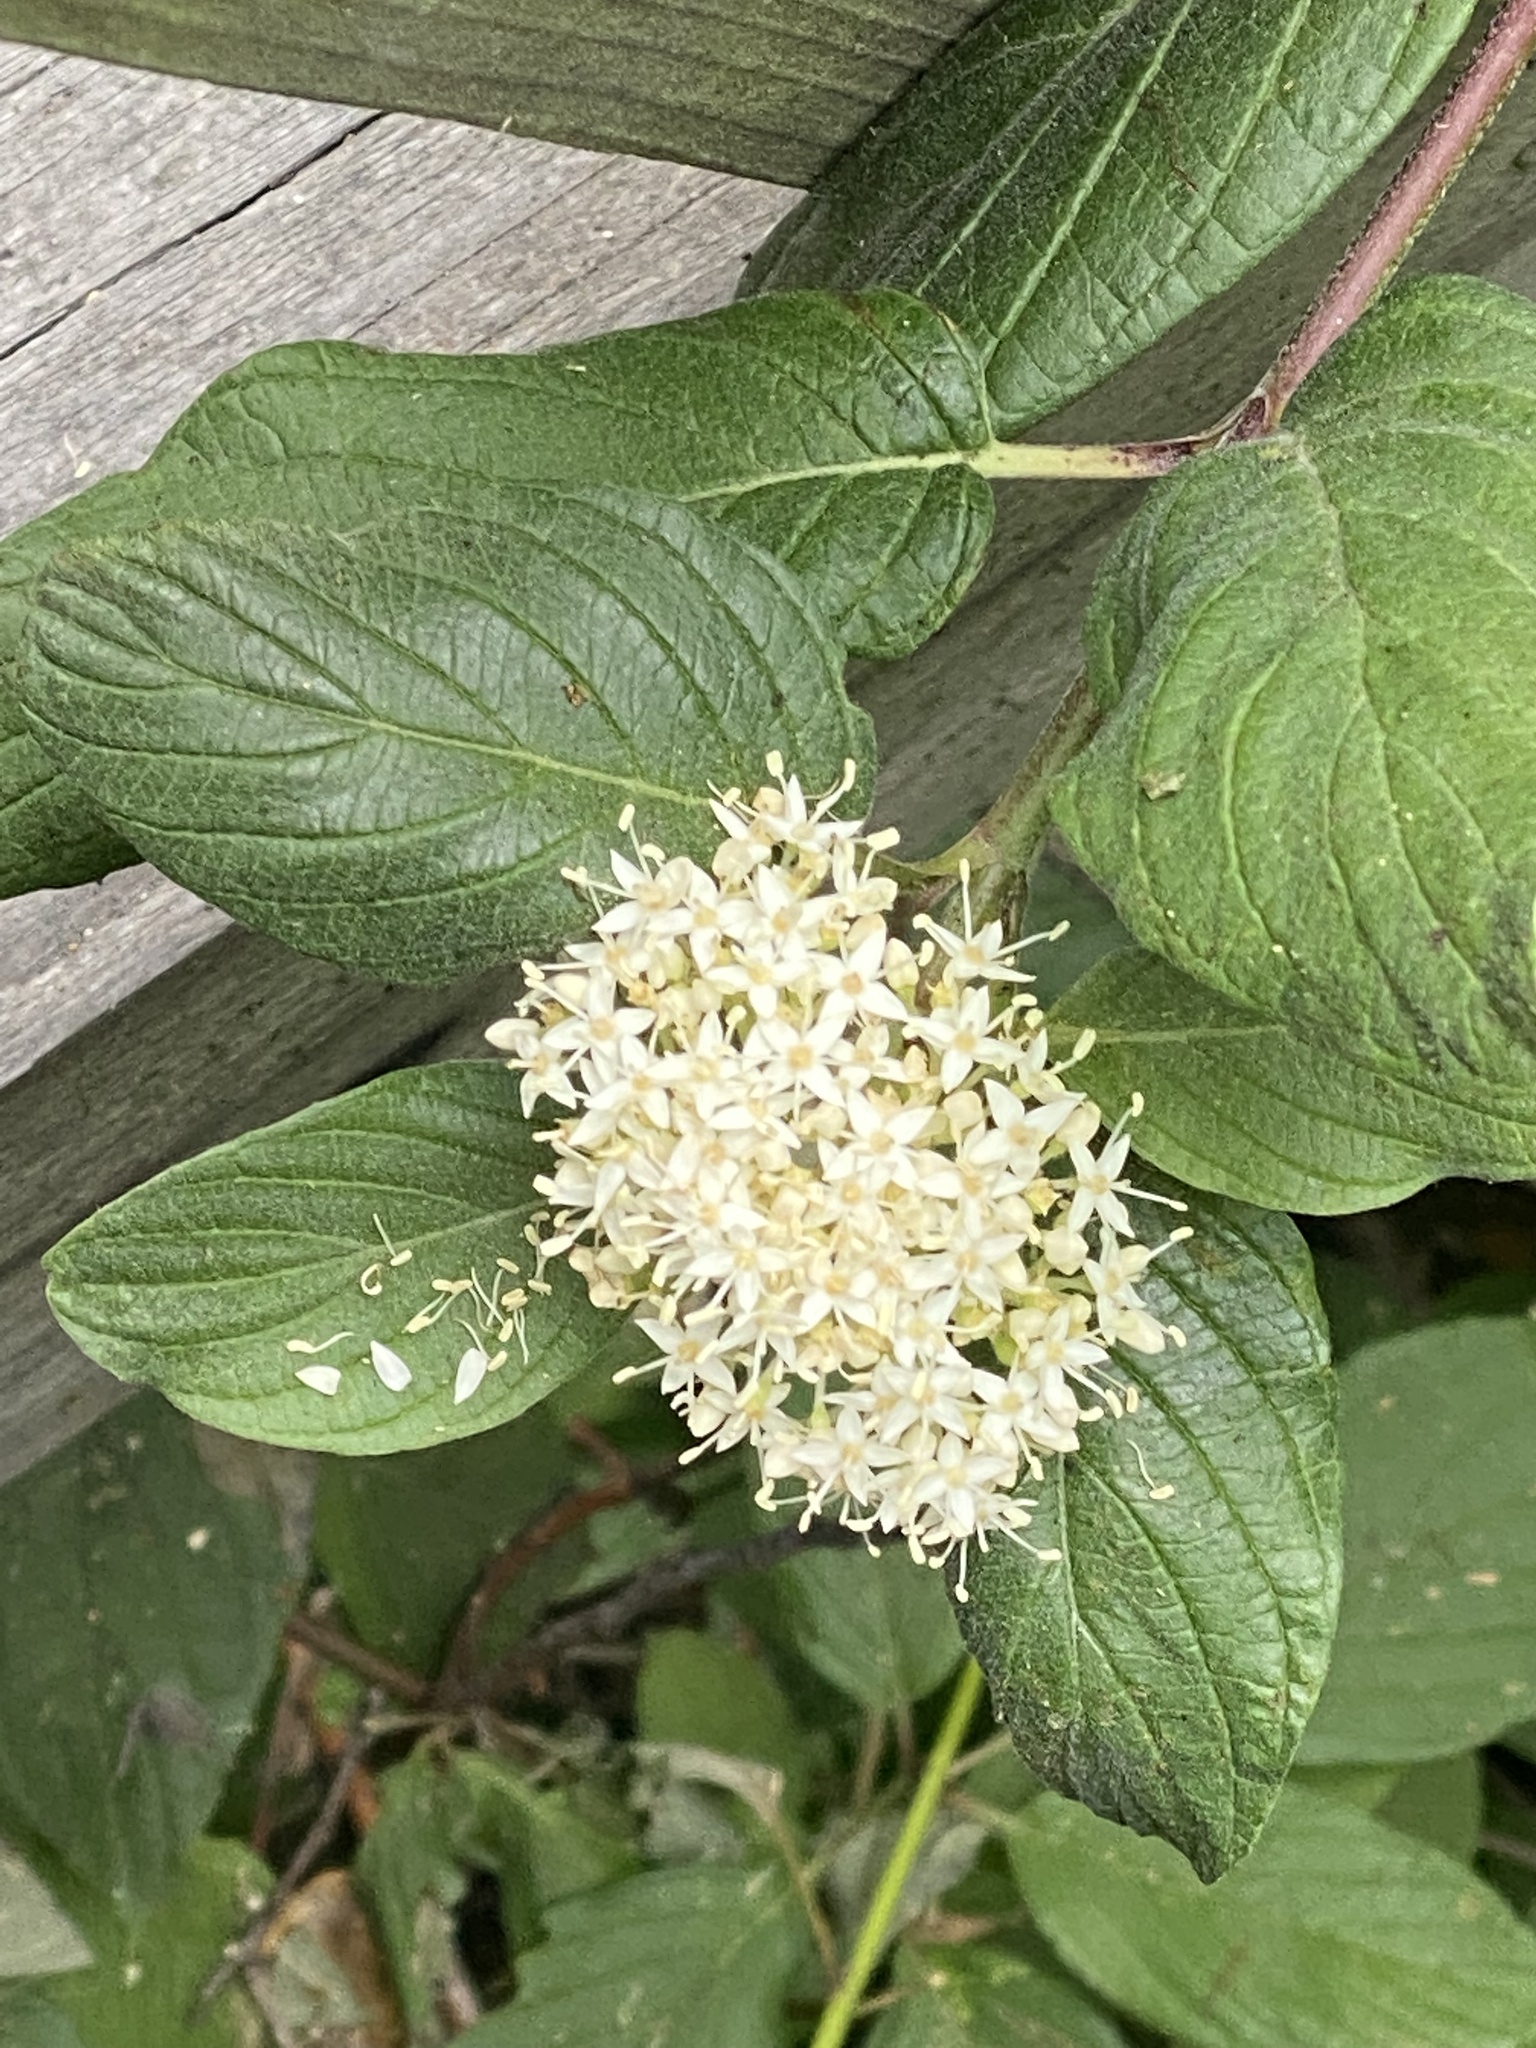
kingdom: Plantae
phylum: Tracheophyta
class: Magnoliopsida
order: Cornales
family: Cornaceae
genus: Cornus
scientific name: Cornus sericea
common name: Red-osier dogwood
